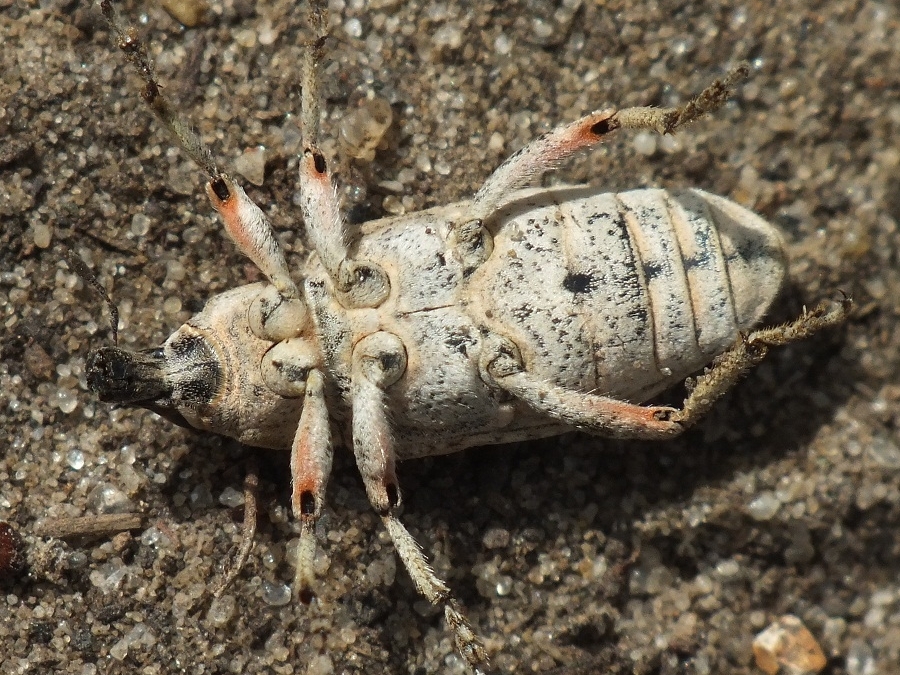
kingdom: Animalia
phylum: Arthropoda
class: Insecta
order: Coleoptera
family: Curculionidae
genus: Asproparthenis
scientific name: Asproparthenis punctiventris
